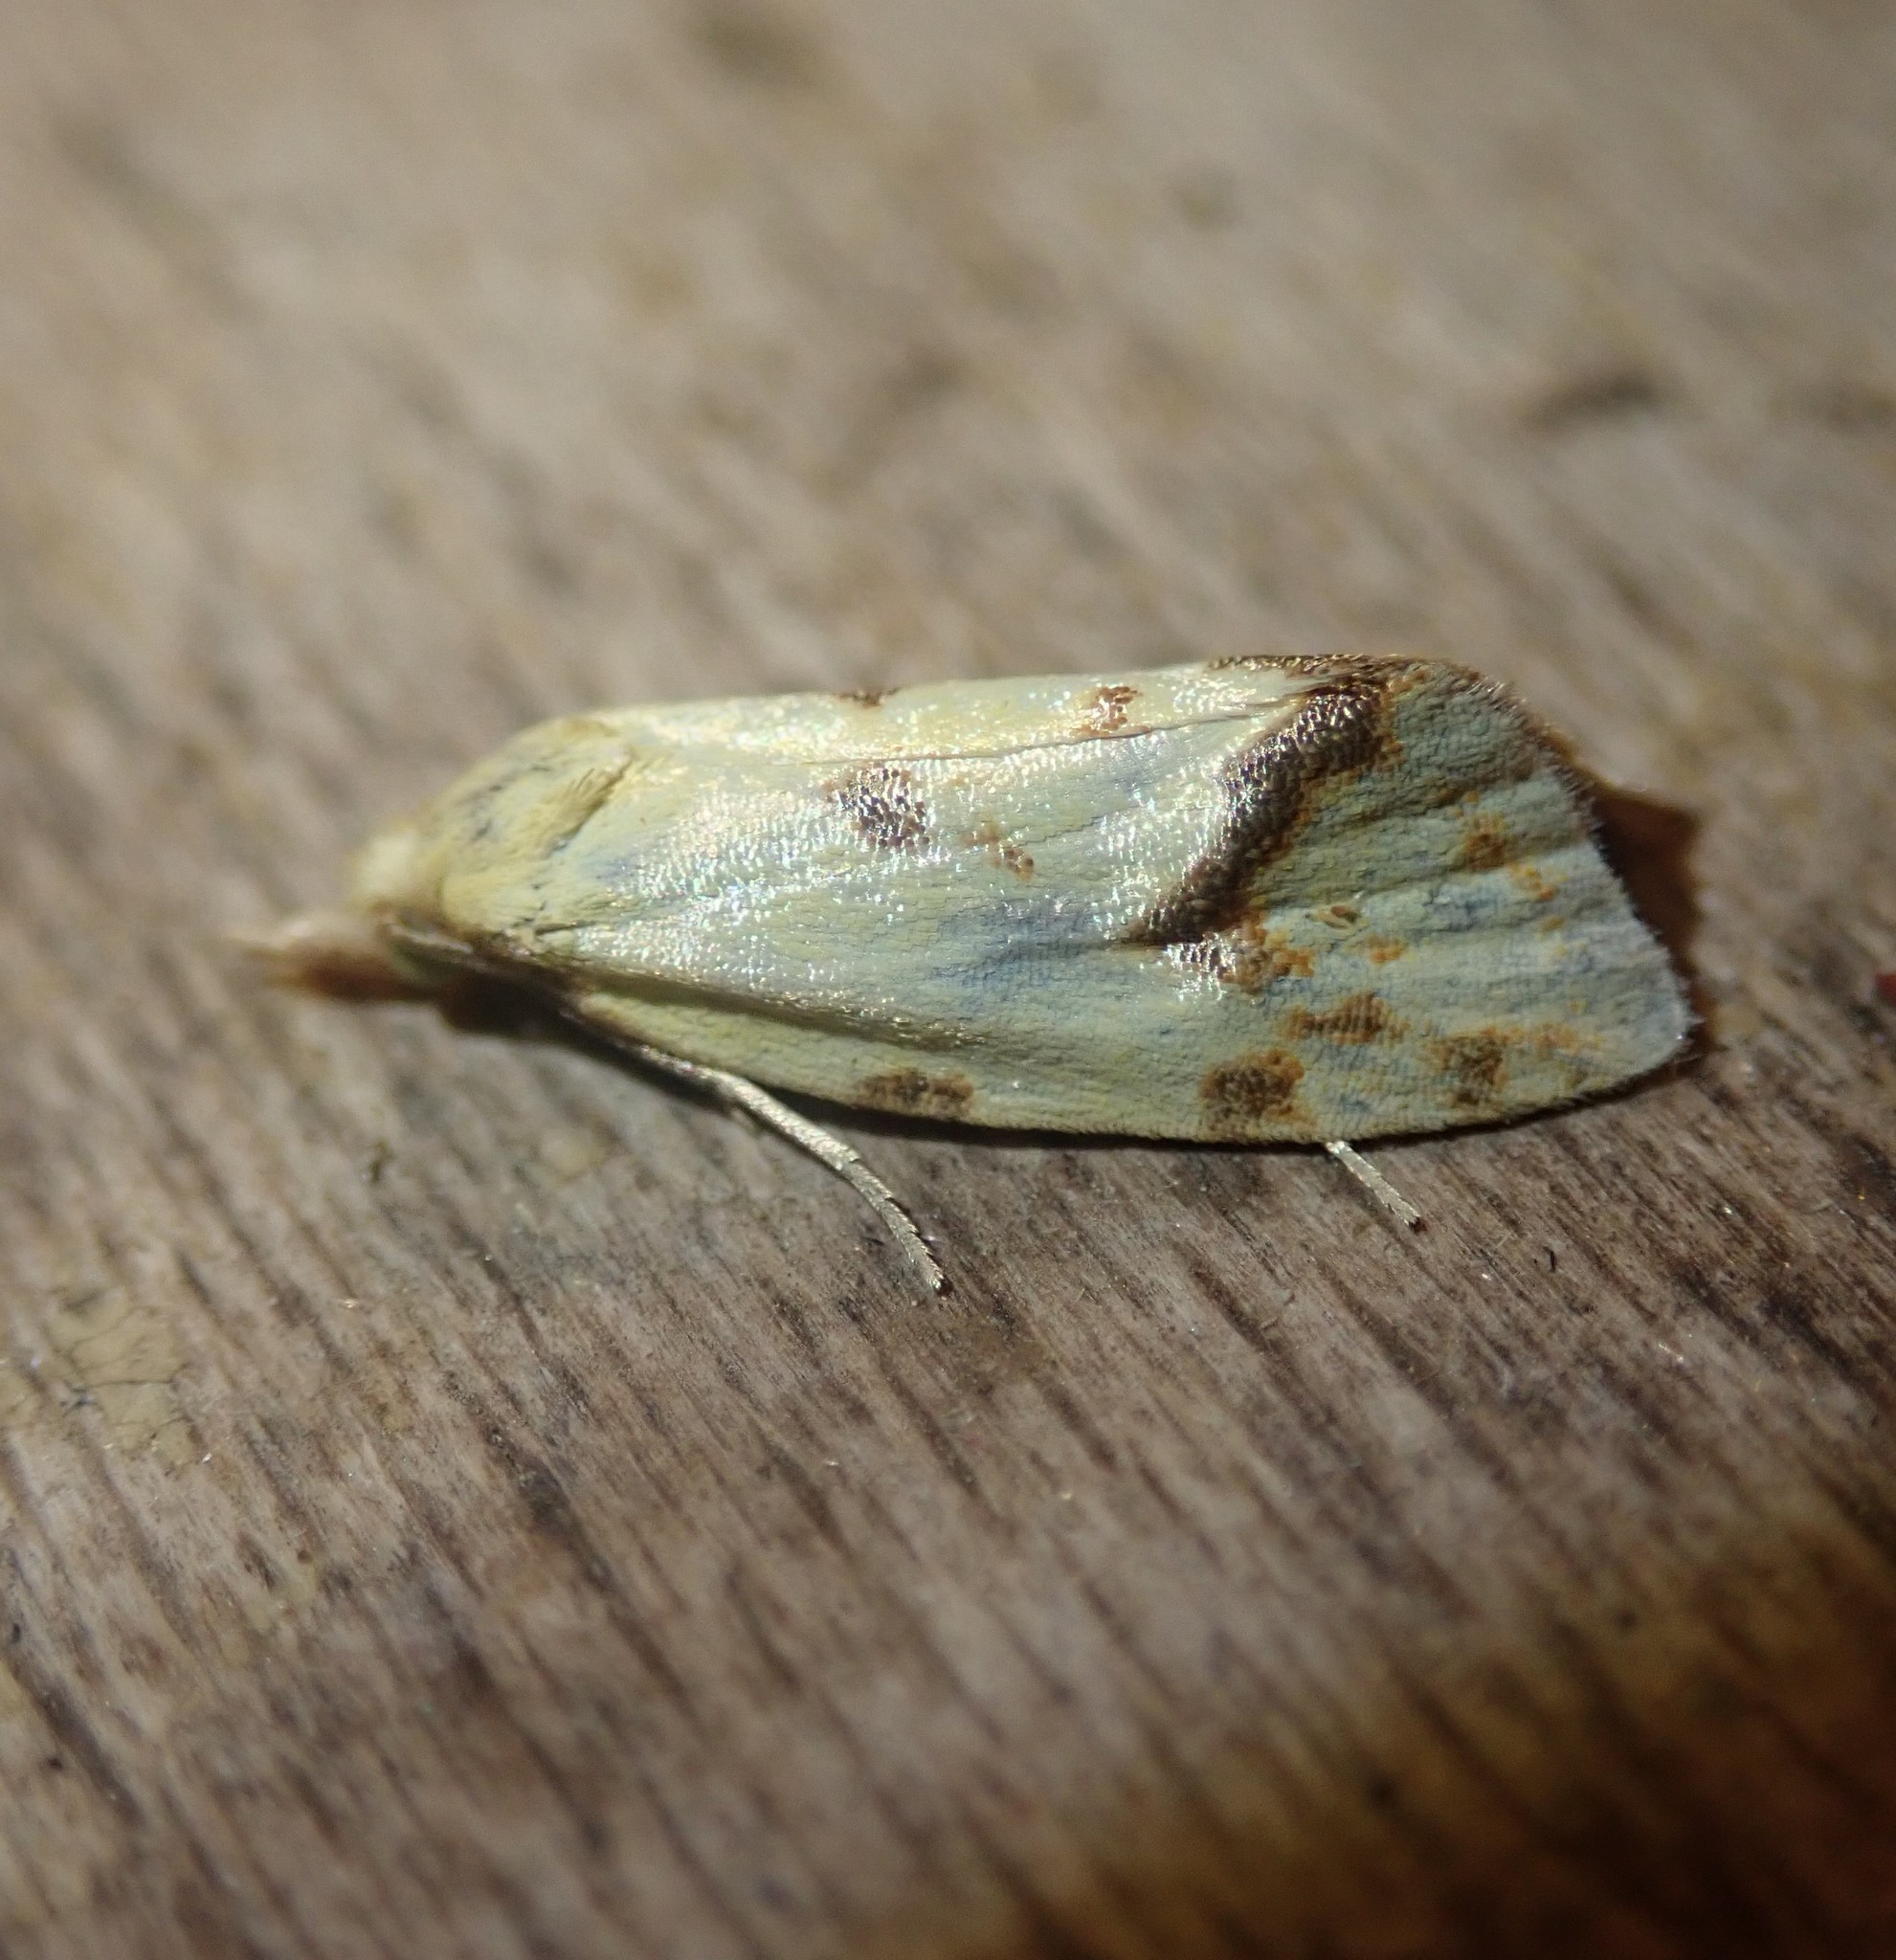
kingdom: Animalia
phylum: Arthropoda
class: Insecta
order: Lepidoptera
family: Tortricidae
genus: Agapeta
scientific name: Agapeta hamana
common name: Common yellow conch
